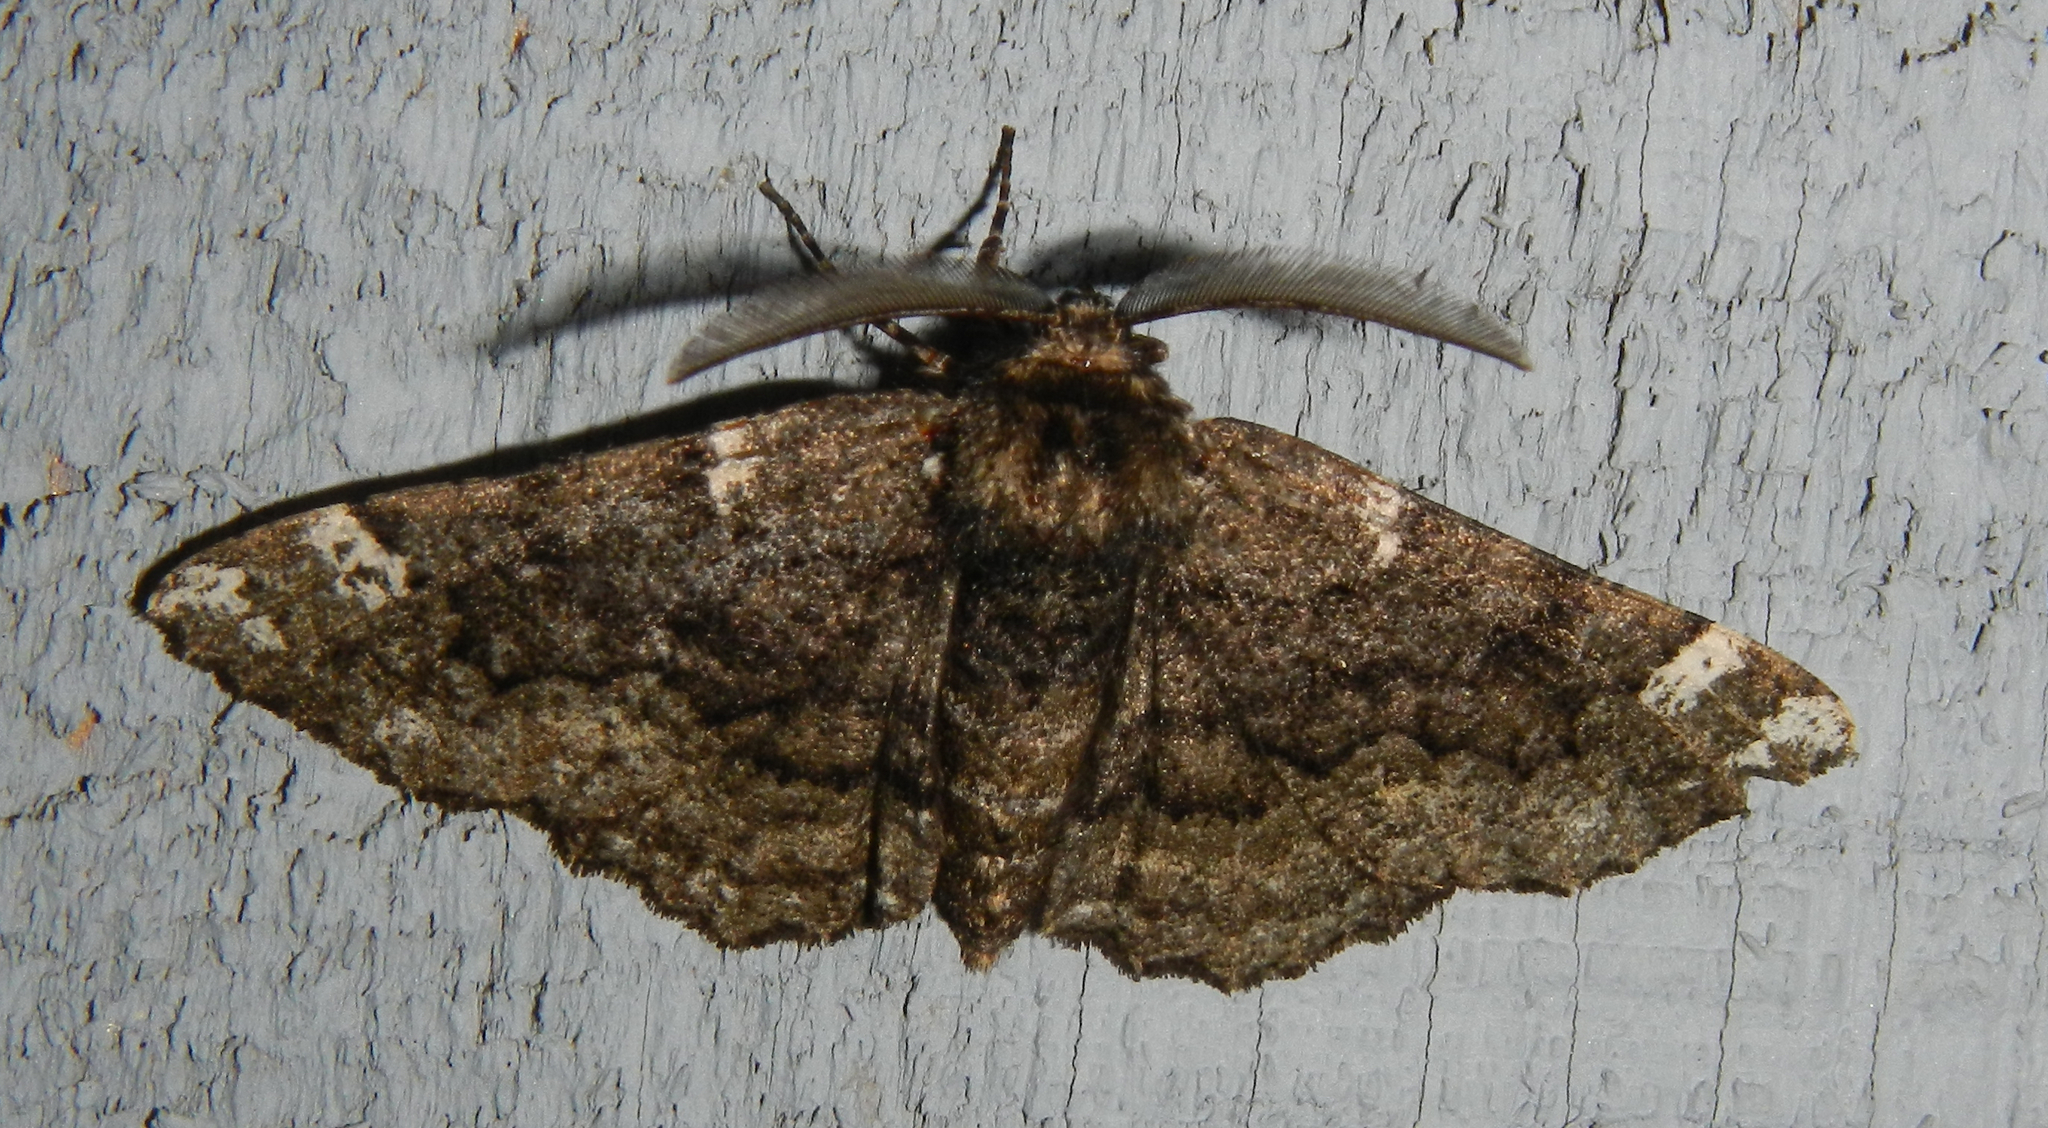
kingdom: Animalia
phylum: Arthropoda
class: Insecta
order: Lepidoptera
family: Geometridae
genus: Phaeoura
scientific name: Phaeoura quernaria
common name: Oak beauty
